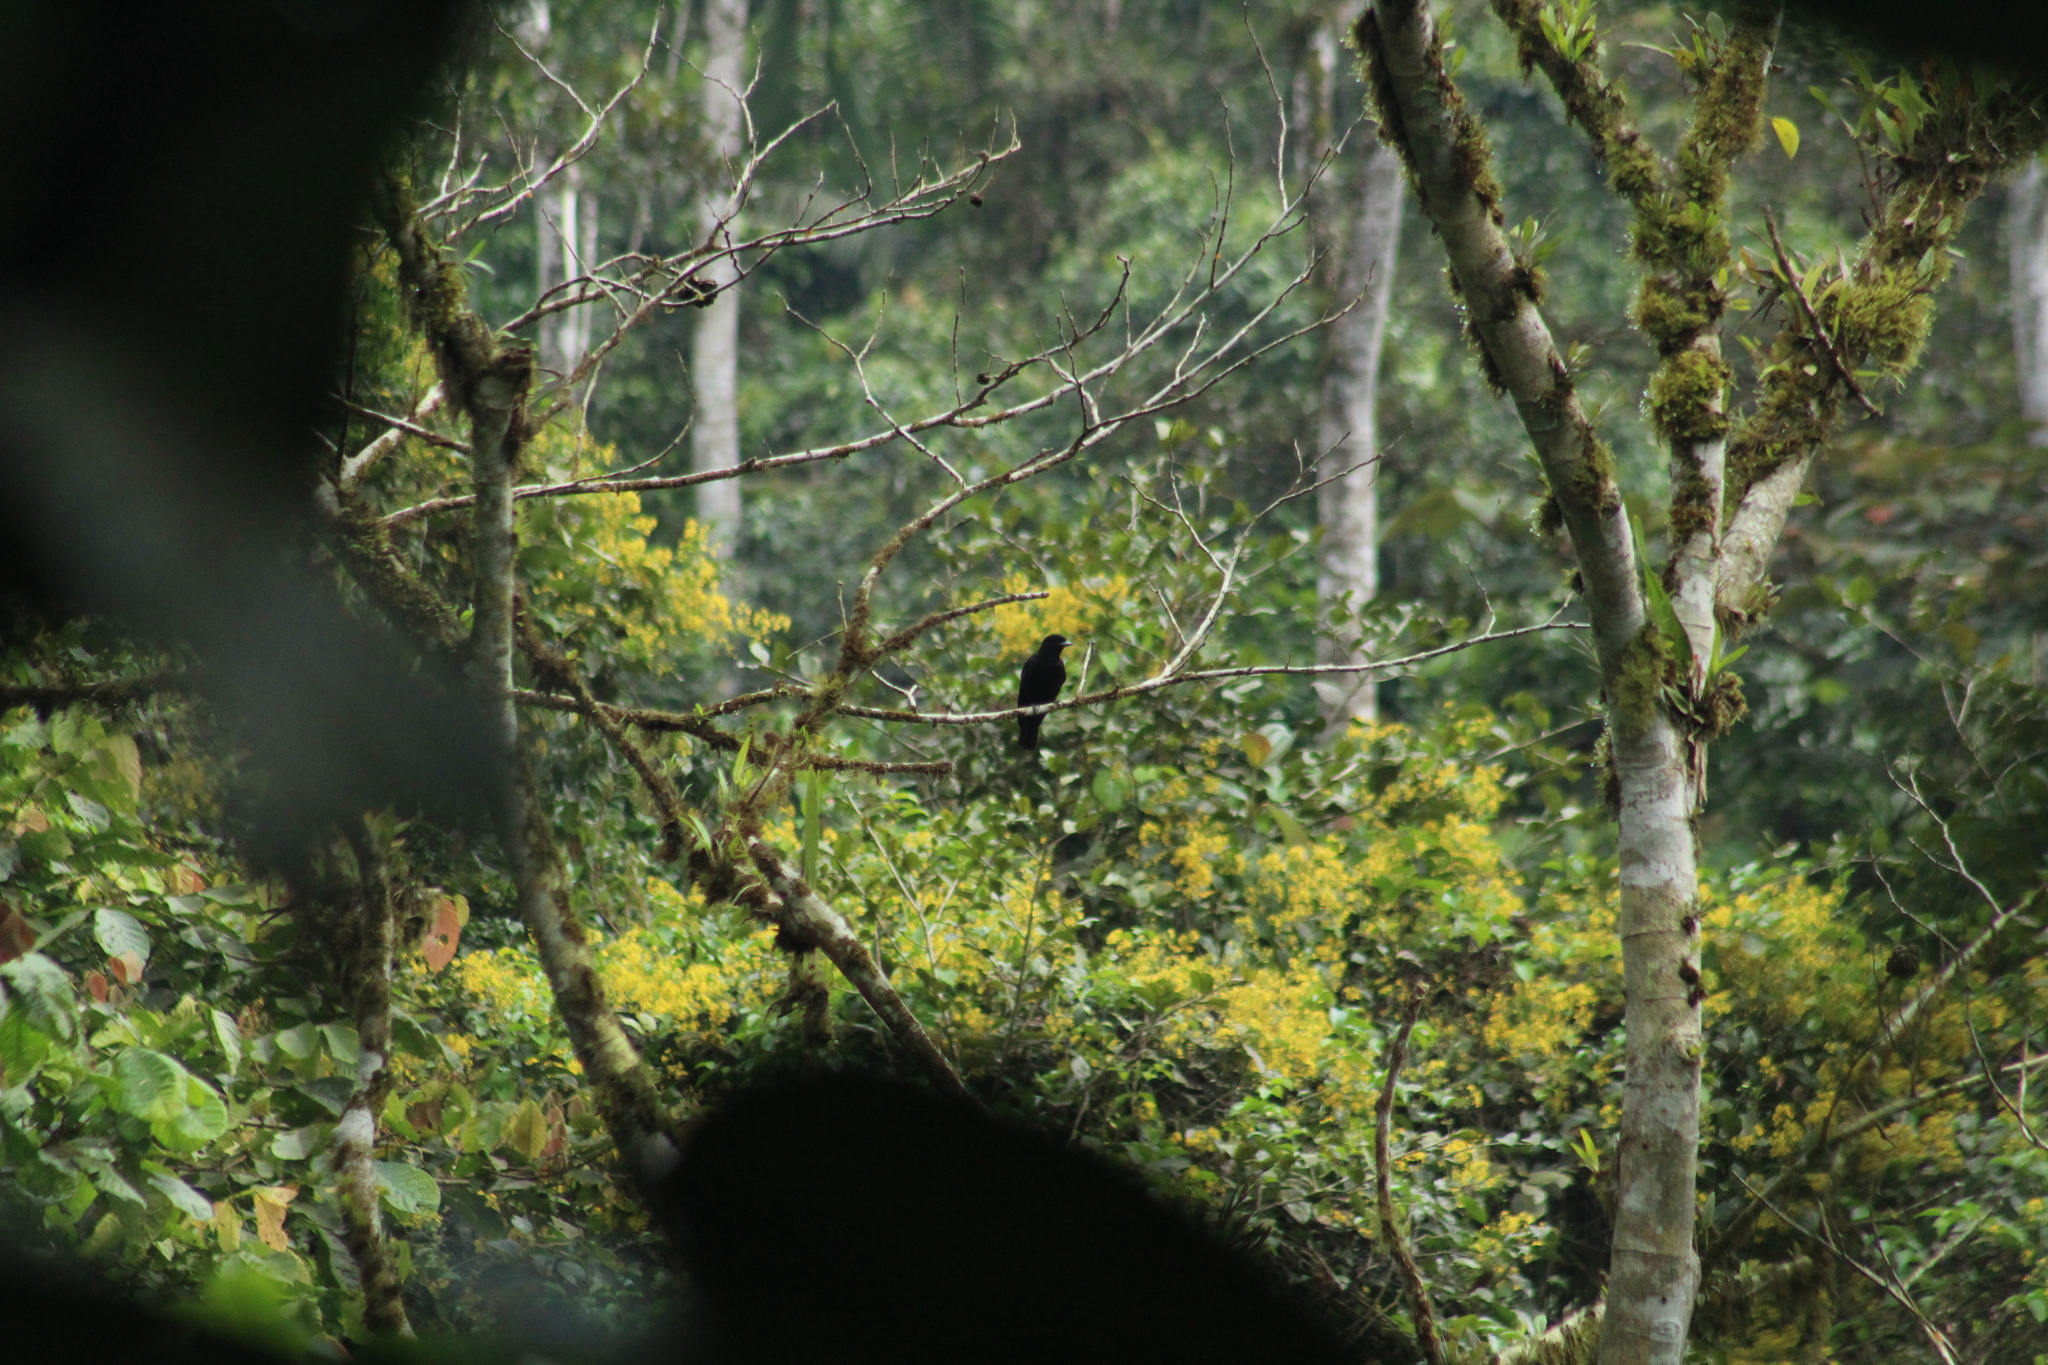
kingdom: Animalia
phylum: Chordata
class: Aves
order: Passeriformes
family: Cotingidae
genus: Querula
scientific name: Querula purpurata
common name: Purple-throated fruitcrow
